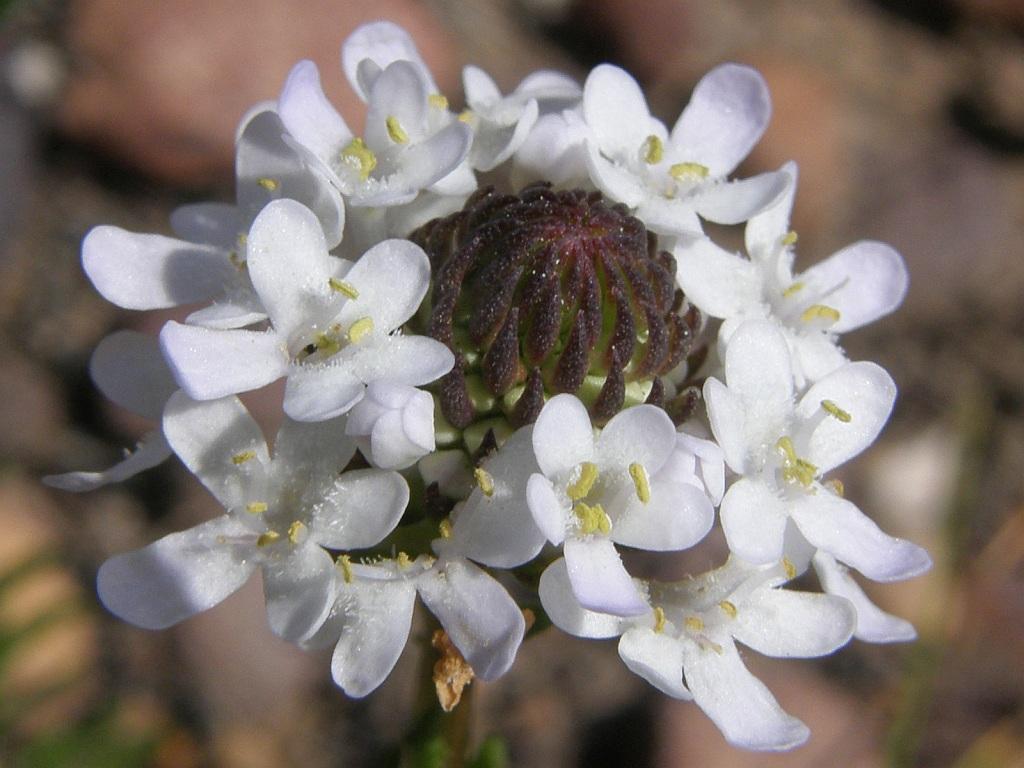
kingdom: Plantae
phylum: Tracheophyta
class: Magnoliopsida
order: Lamiales
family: Scrophulariaceae
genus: Pseudoselago
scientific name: Pseudoselago spuria
